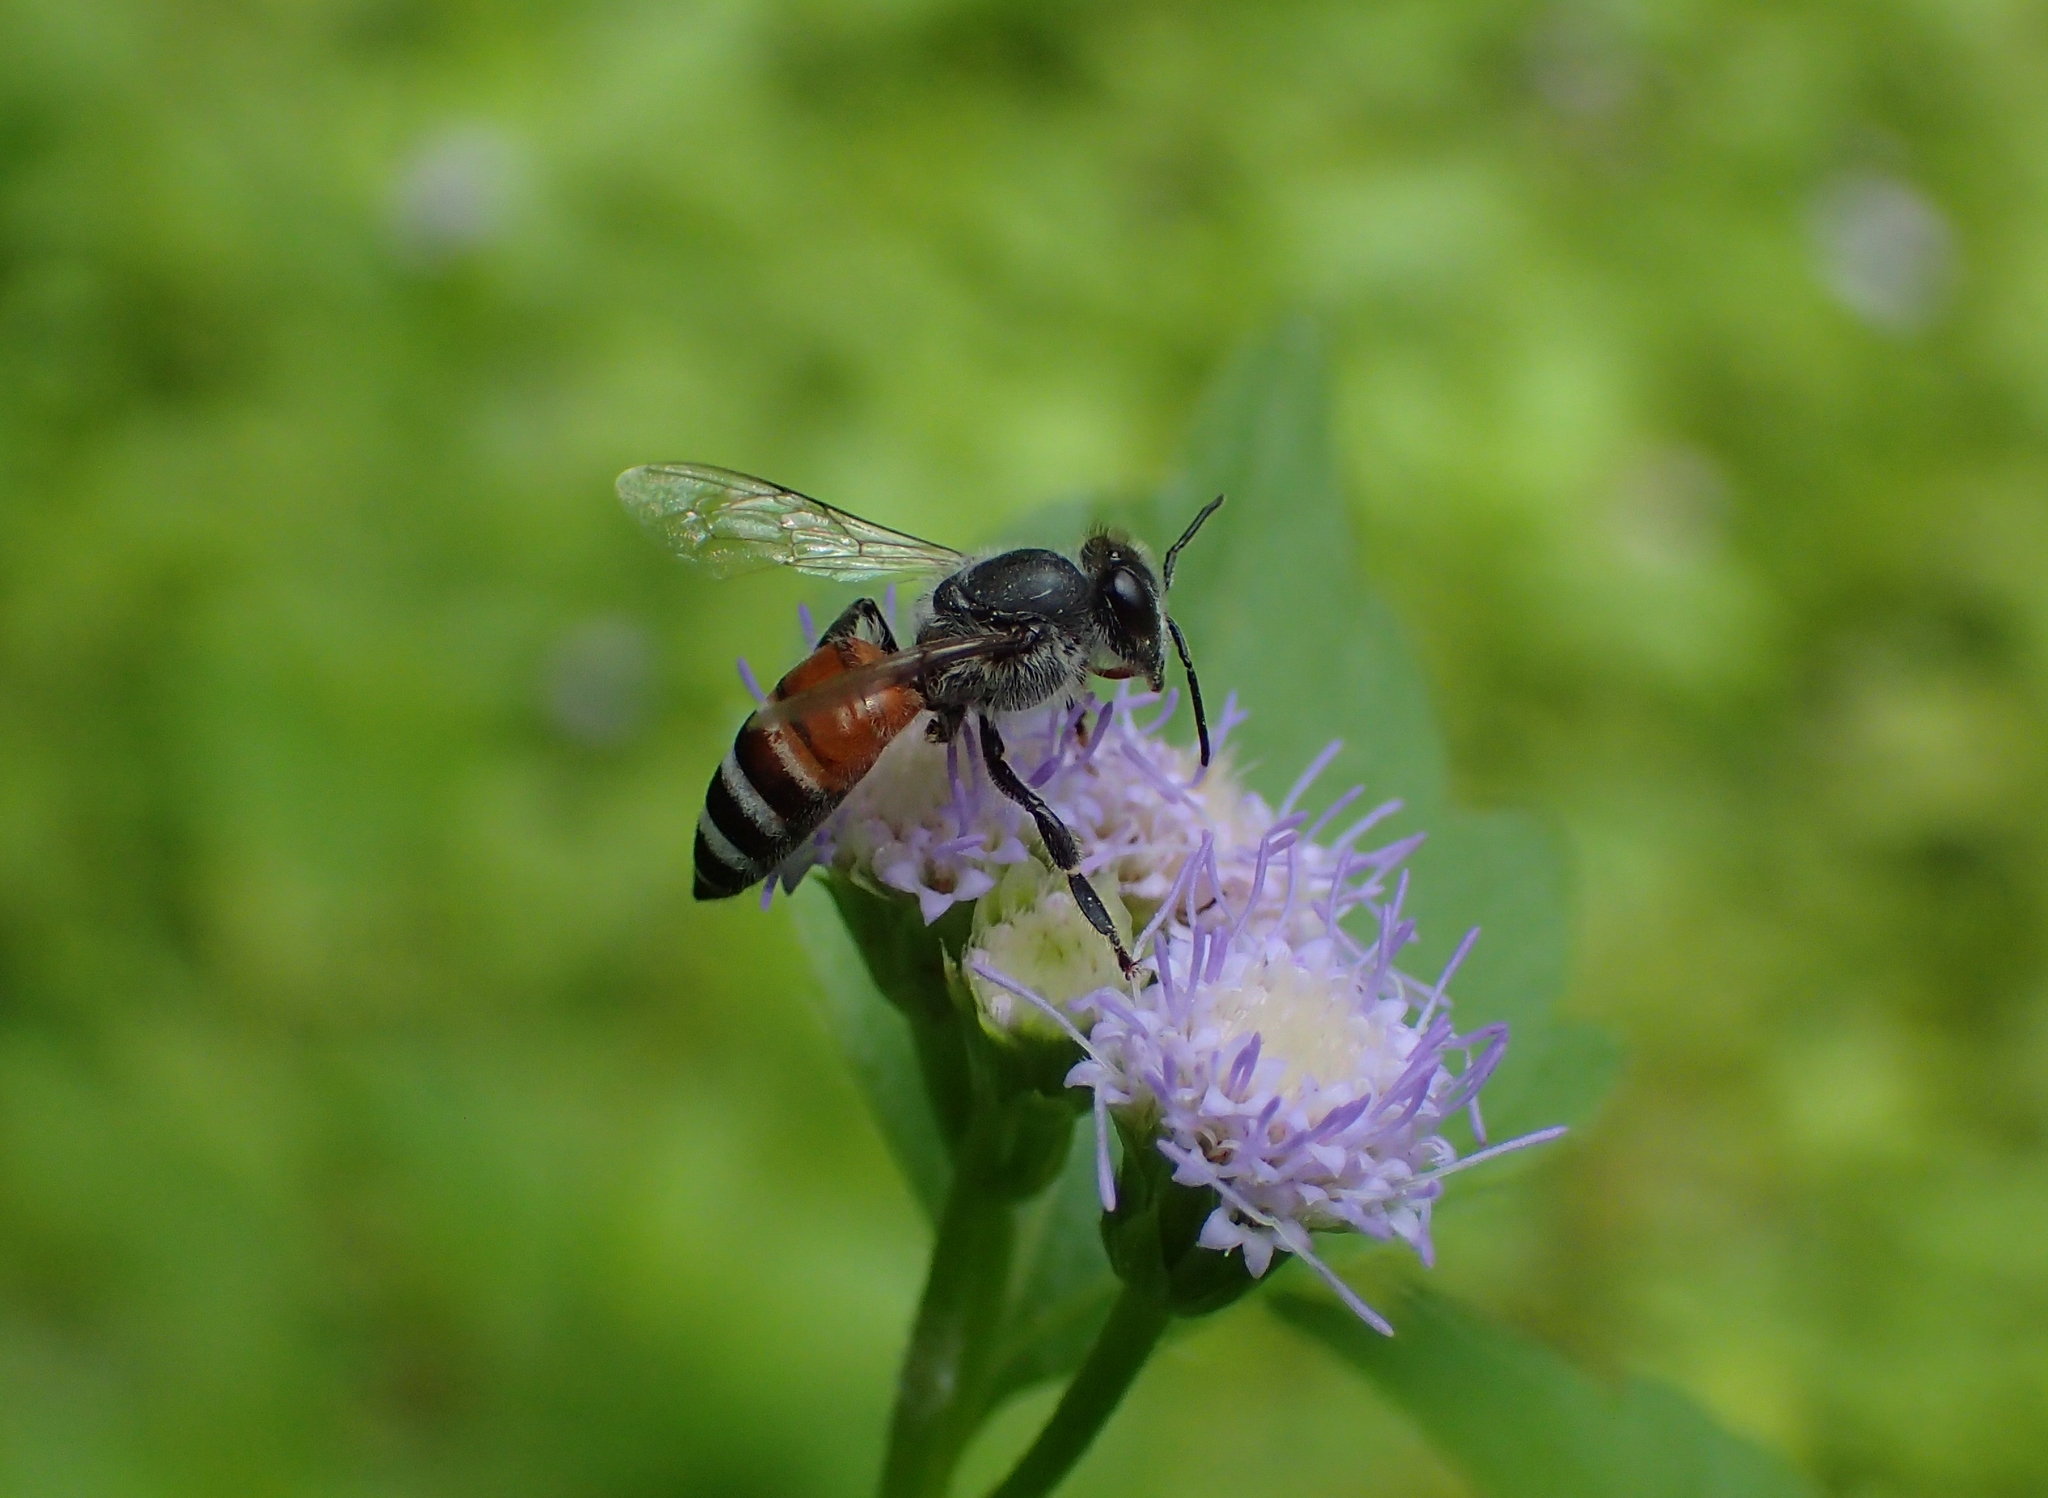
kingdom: Animalia
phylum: Arthropoda
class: Insecta
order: Hymenoptera
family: Apidae
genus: Apis
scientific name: Apis florea
